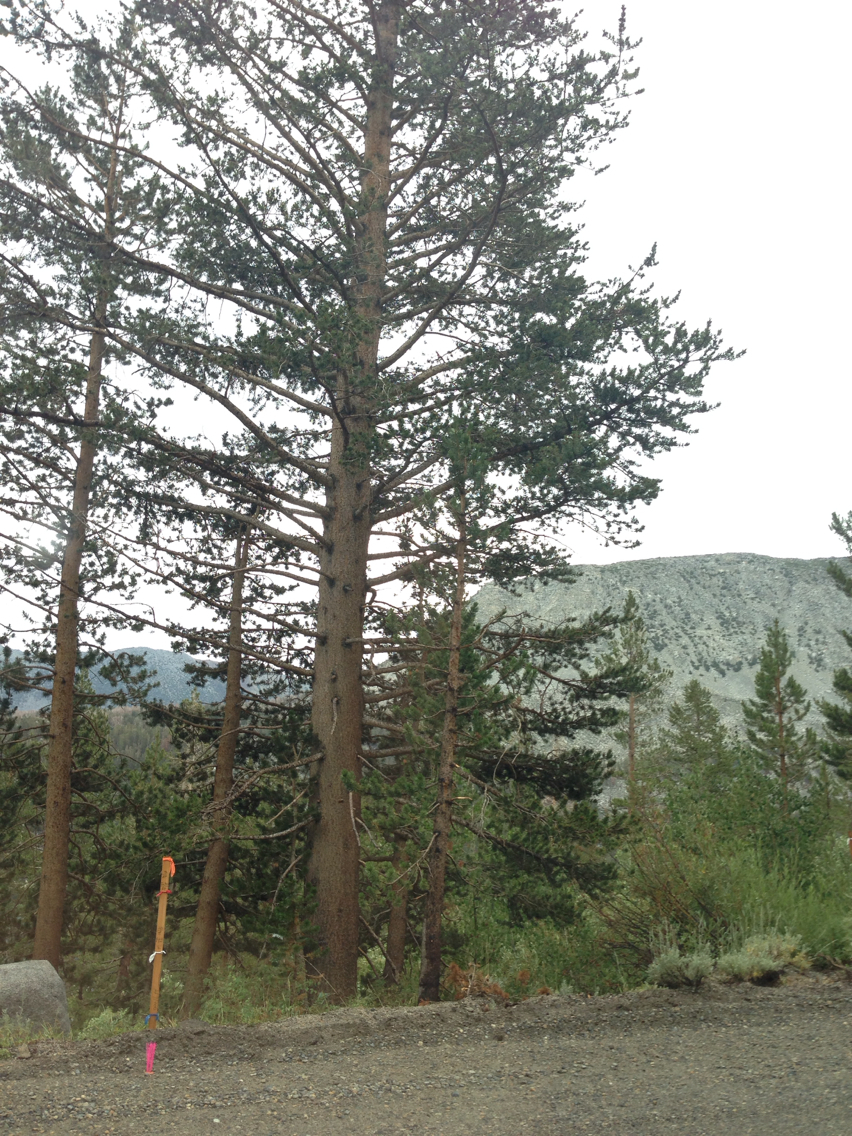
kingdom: Plantae
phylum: Tracheophyta
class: Pinopsida
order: Pinales
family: Pinaceae
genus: Pinus
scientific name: Pinus contorta
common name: Lodgepole pine
